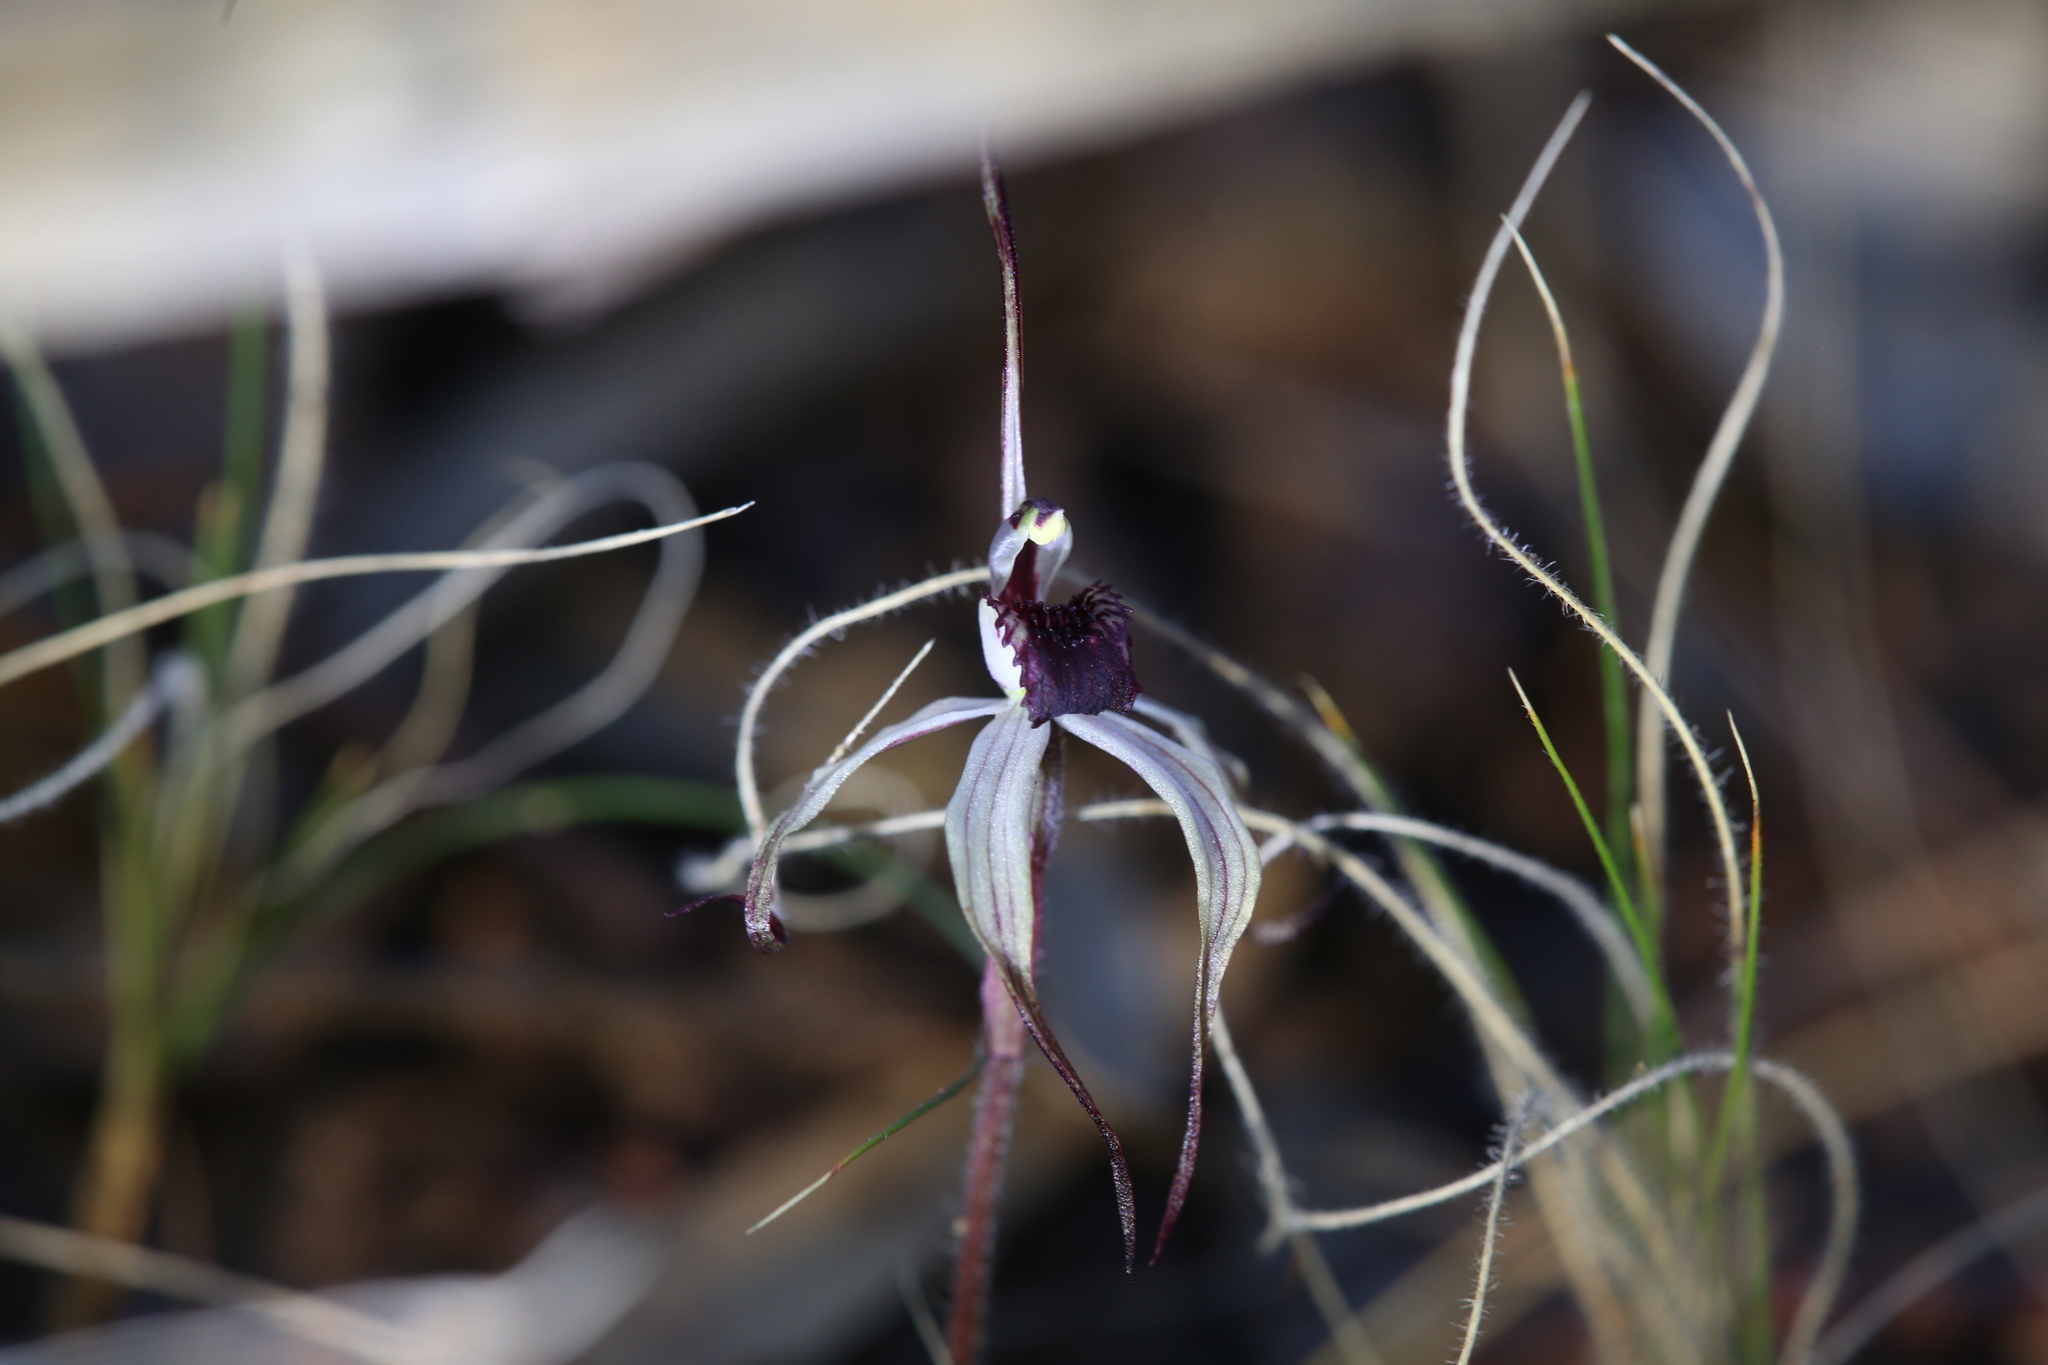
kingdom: Plantae
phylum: Tracheophyta
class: Liliopsida
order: Asparagales
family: Orchidaceae
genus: Caladenia
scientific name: Caladenia drummondii
